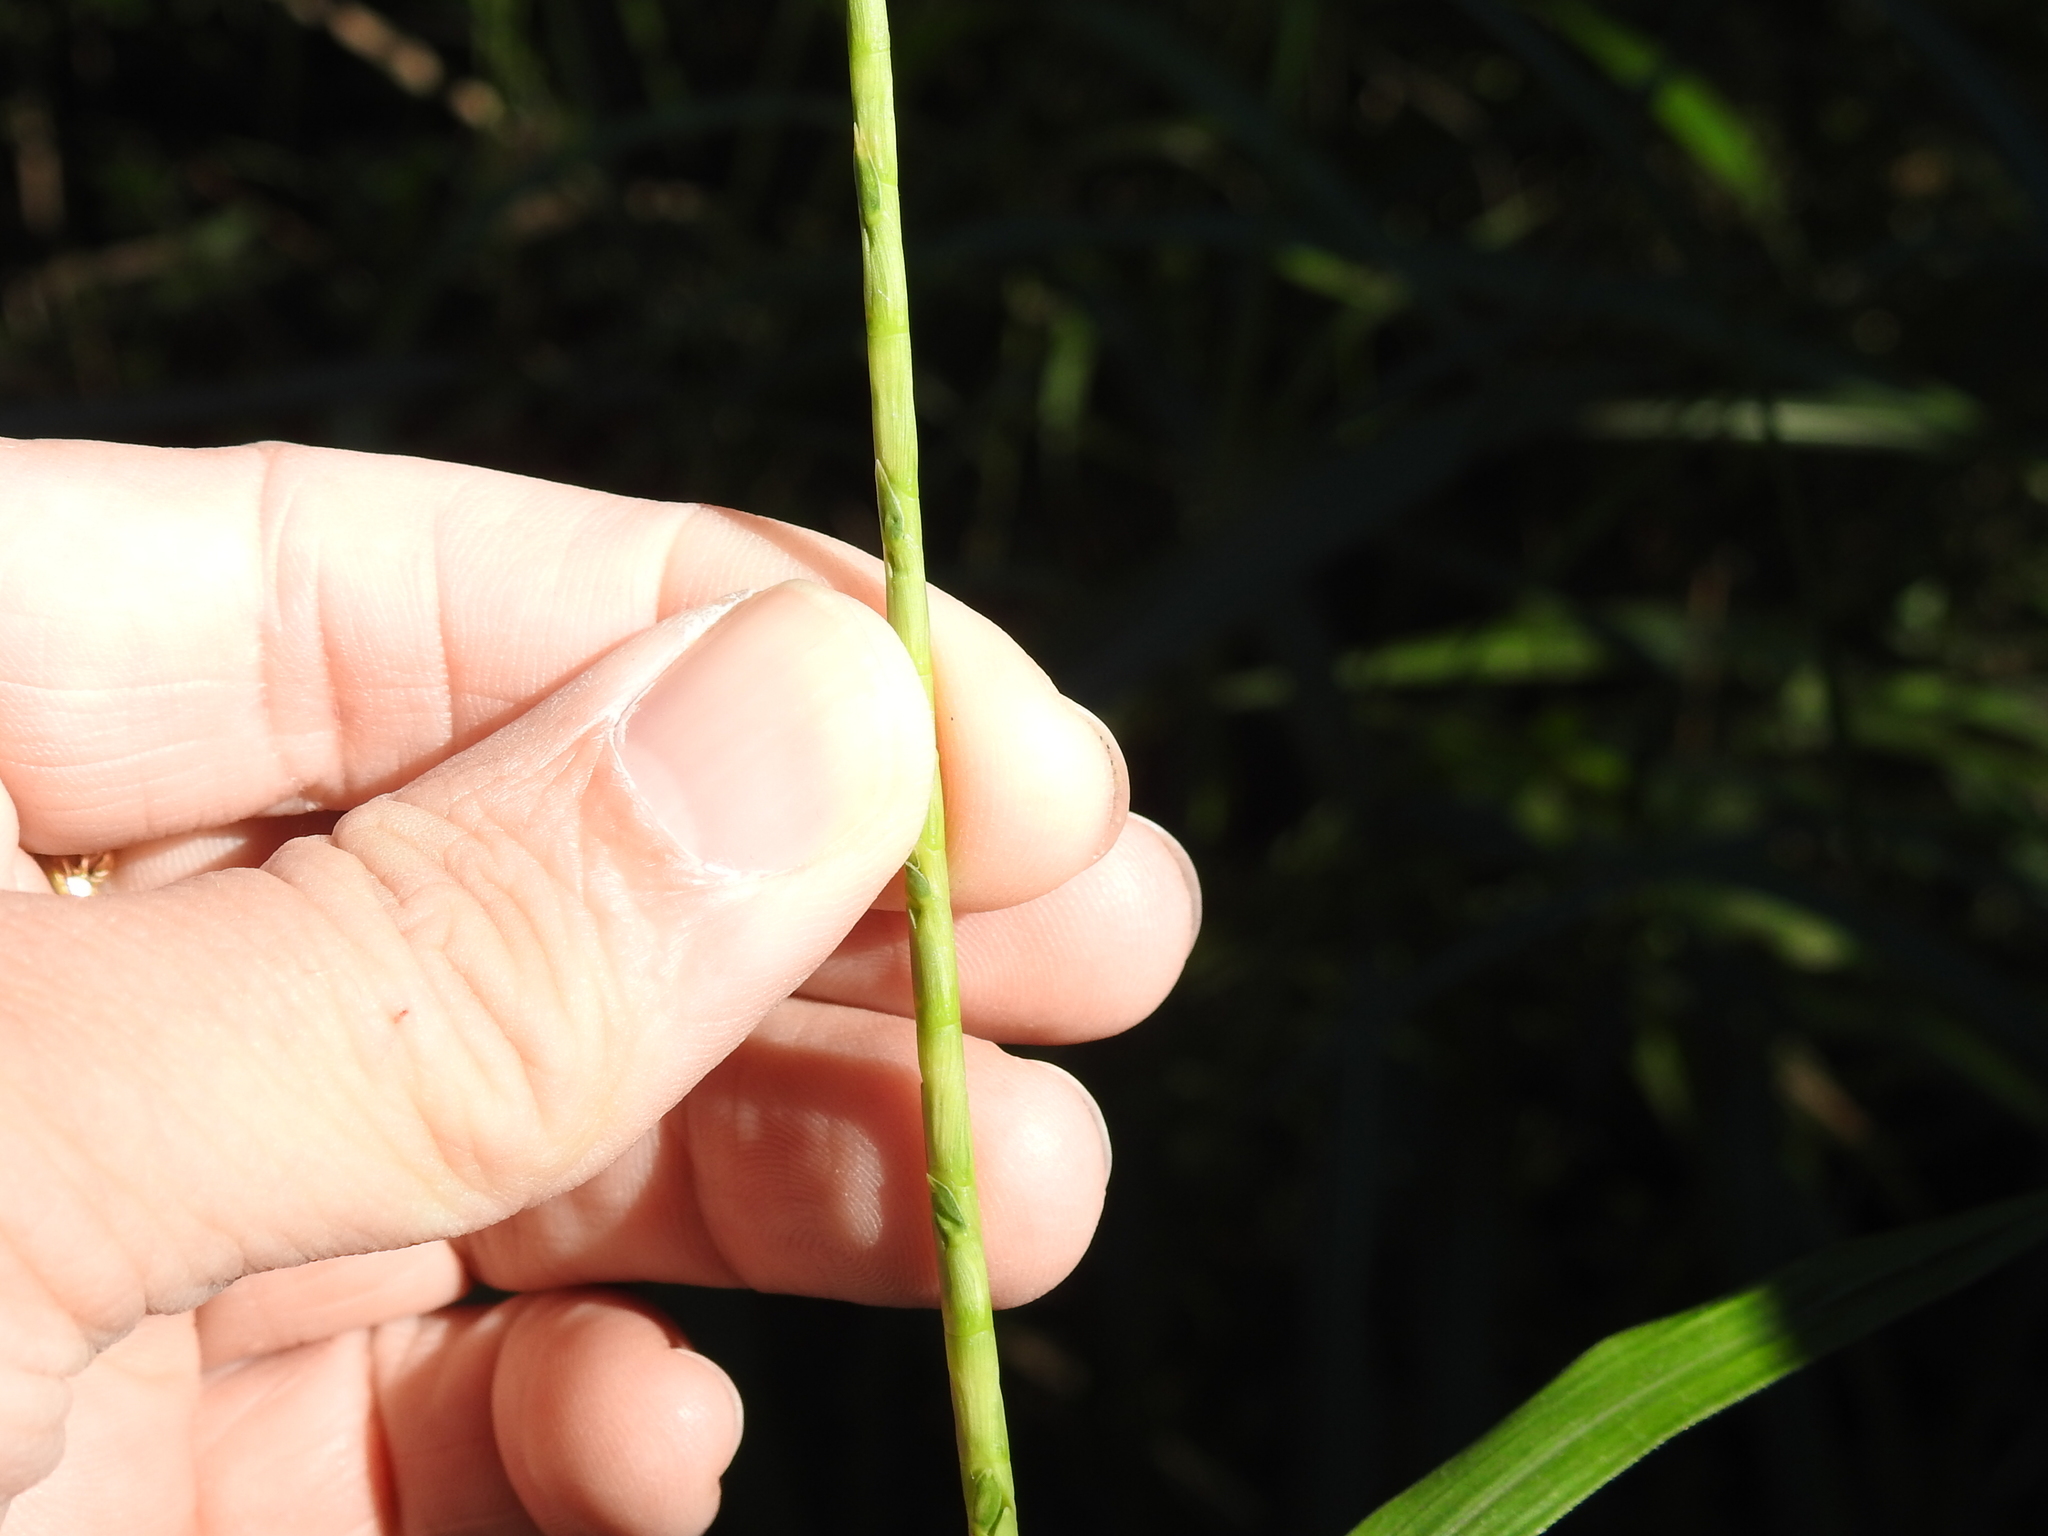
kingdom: Plantae
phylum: Tracheophyta
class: Liliopsida
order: Poales
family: Poaceae
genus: Rottboellia
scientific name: Rottboellia cochinchinensis
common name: Itchgrass
